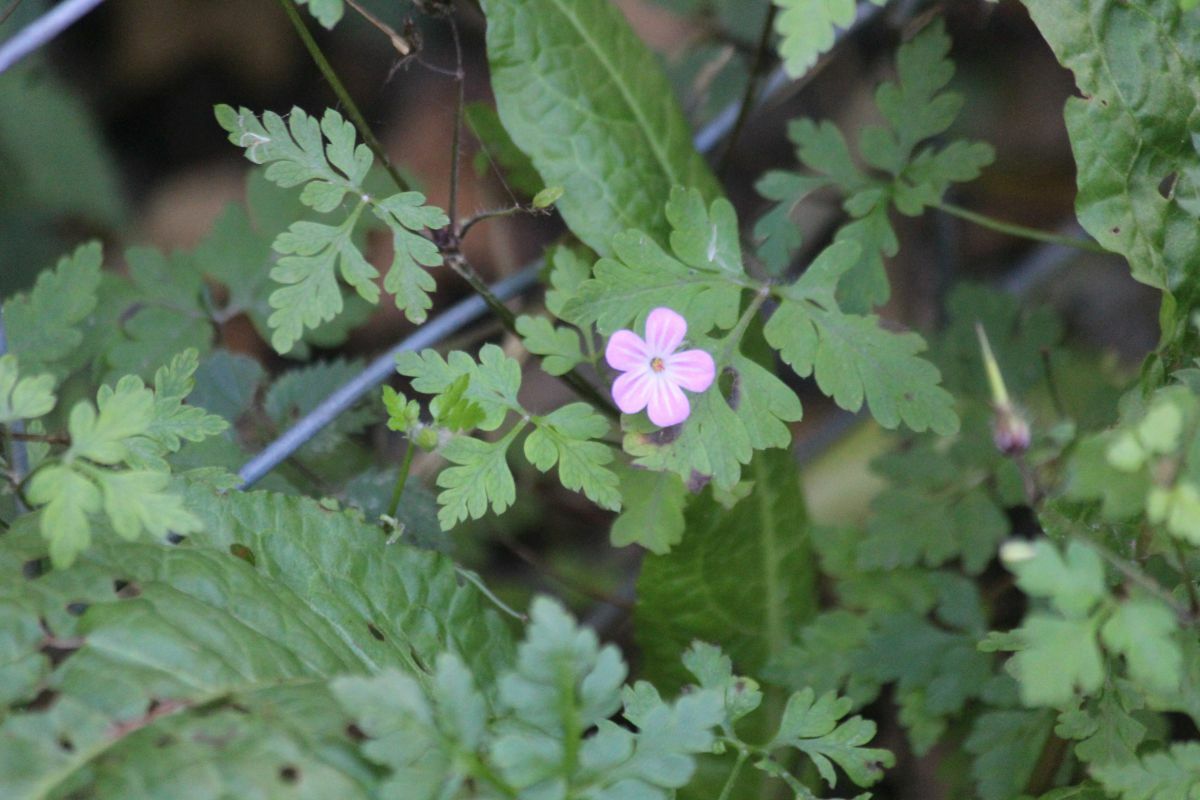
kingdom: Plantae
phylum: Tracheophyta
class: Magnoliopsida
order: Geraniales
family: Geraniaceae
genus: Geranium
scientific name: Geranium robertianum
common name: Herb-robert
